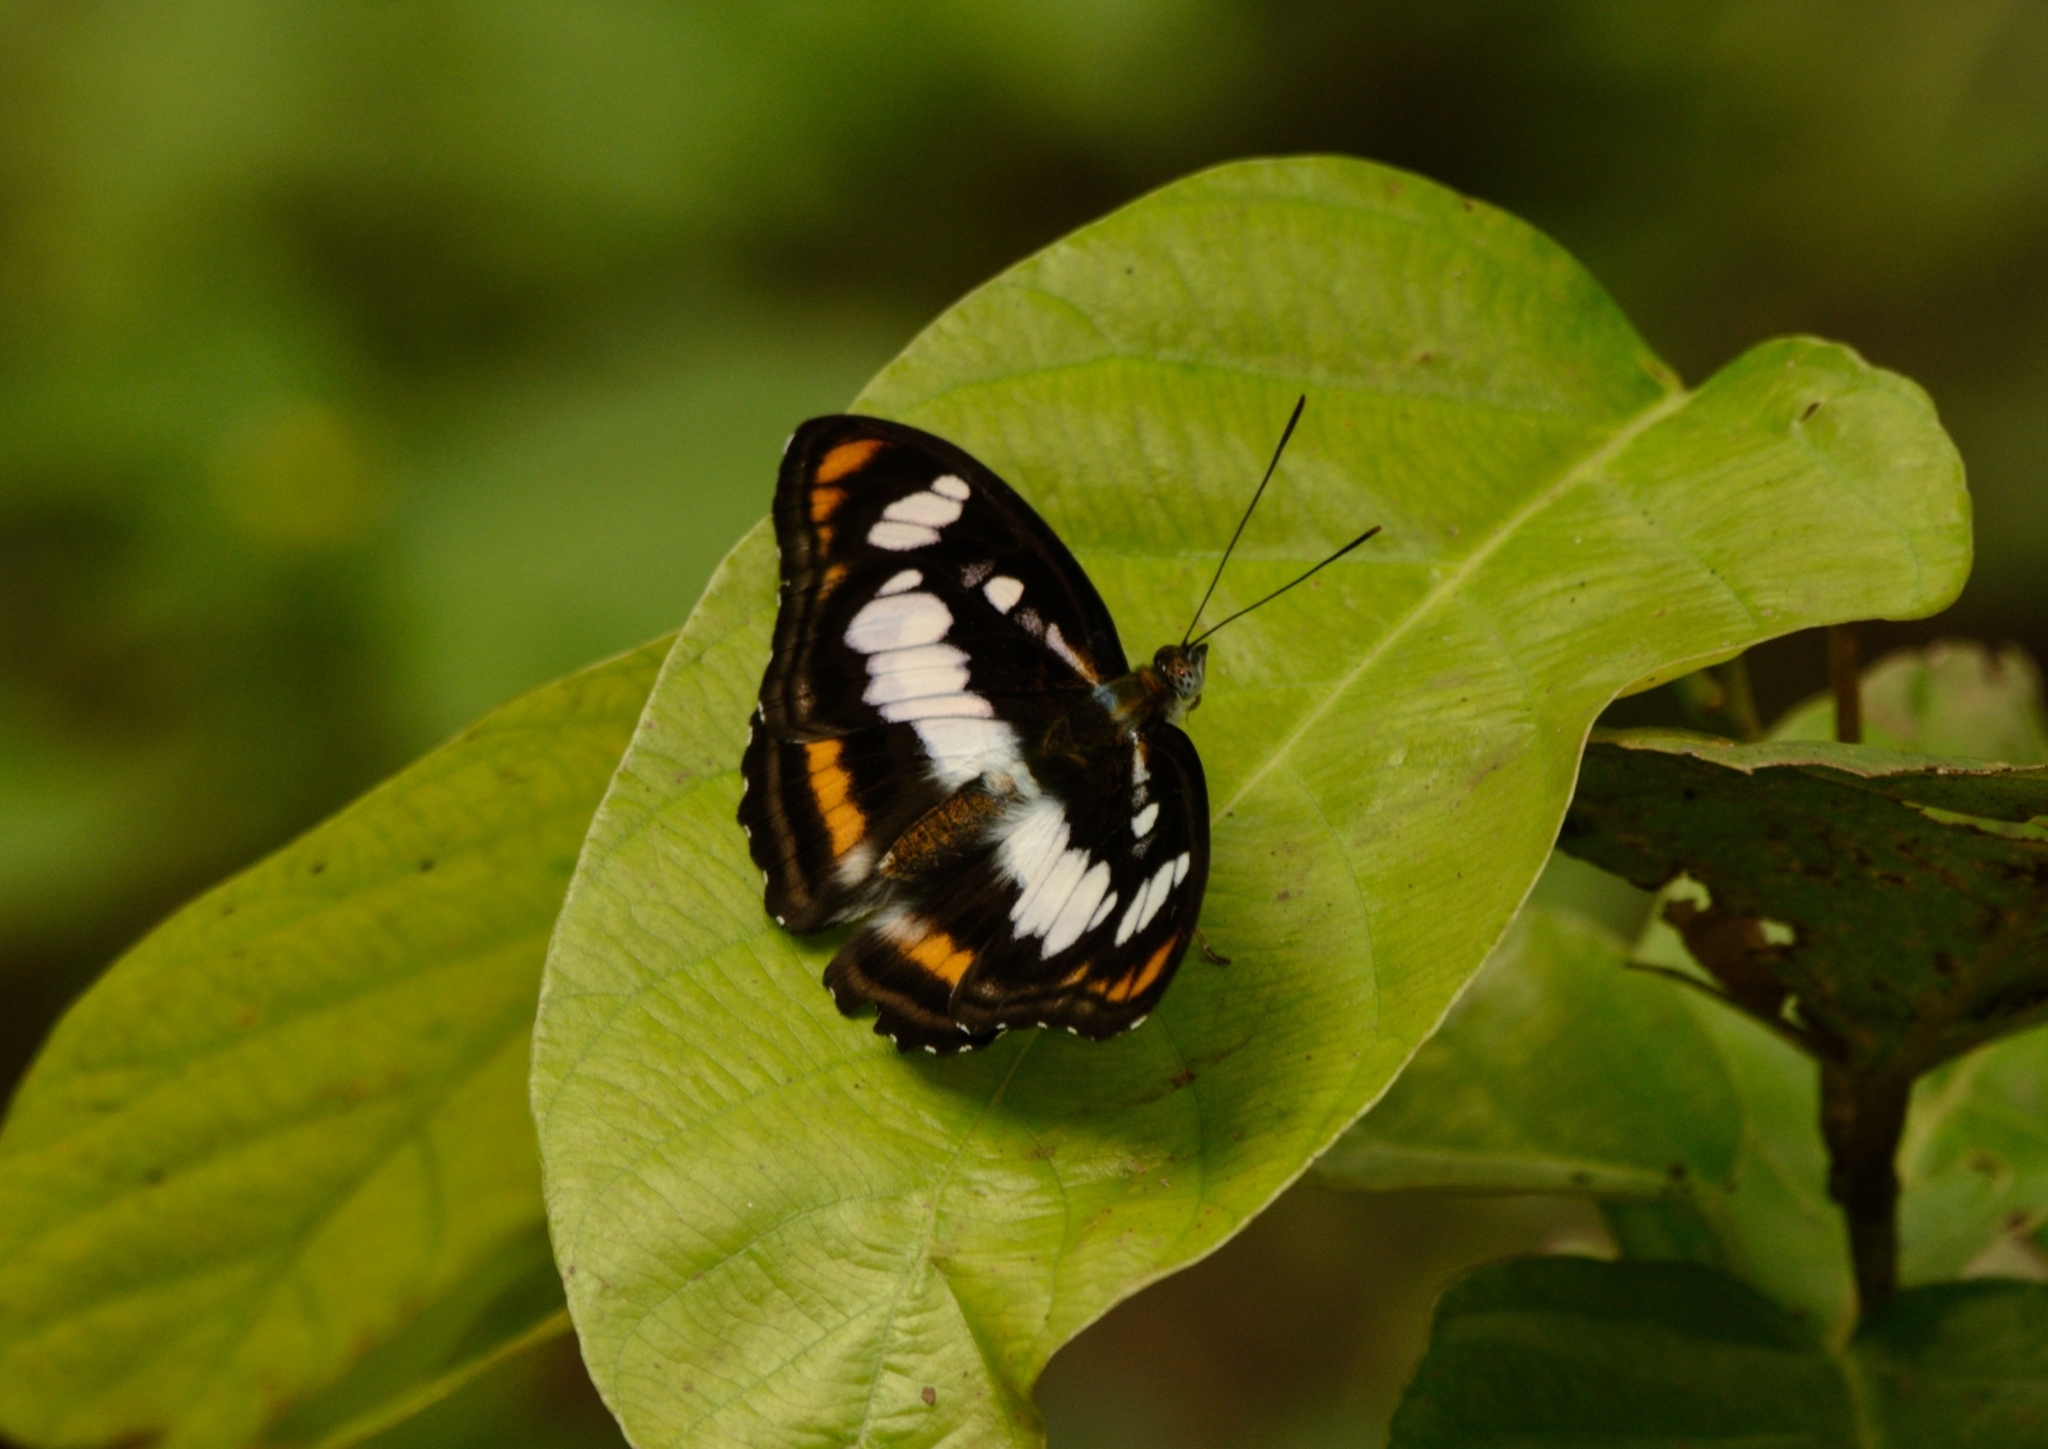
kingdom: Animalia
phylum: Arthropoda
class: Insecta
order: Lepidoptera
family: Nymphalidae
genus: Parathyma
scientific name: Parathyma nefte
